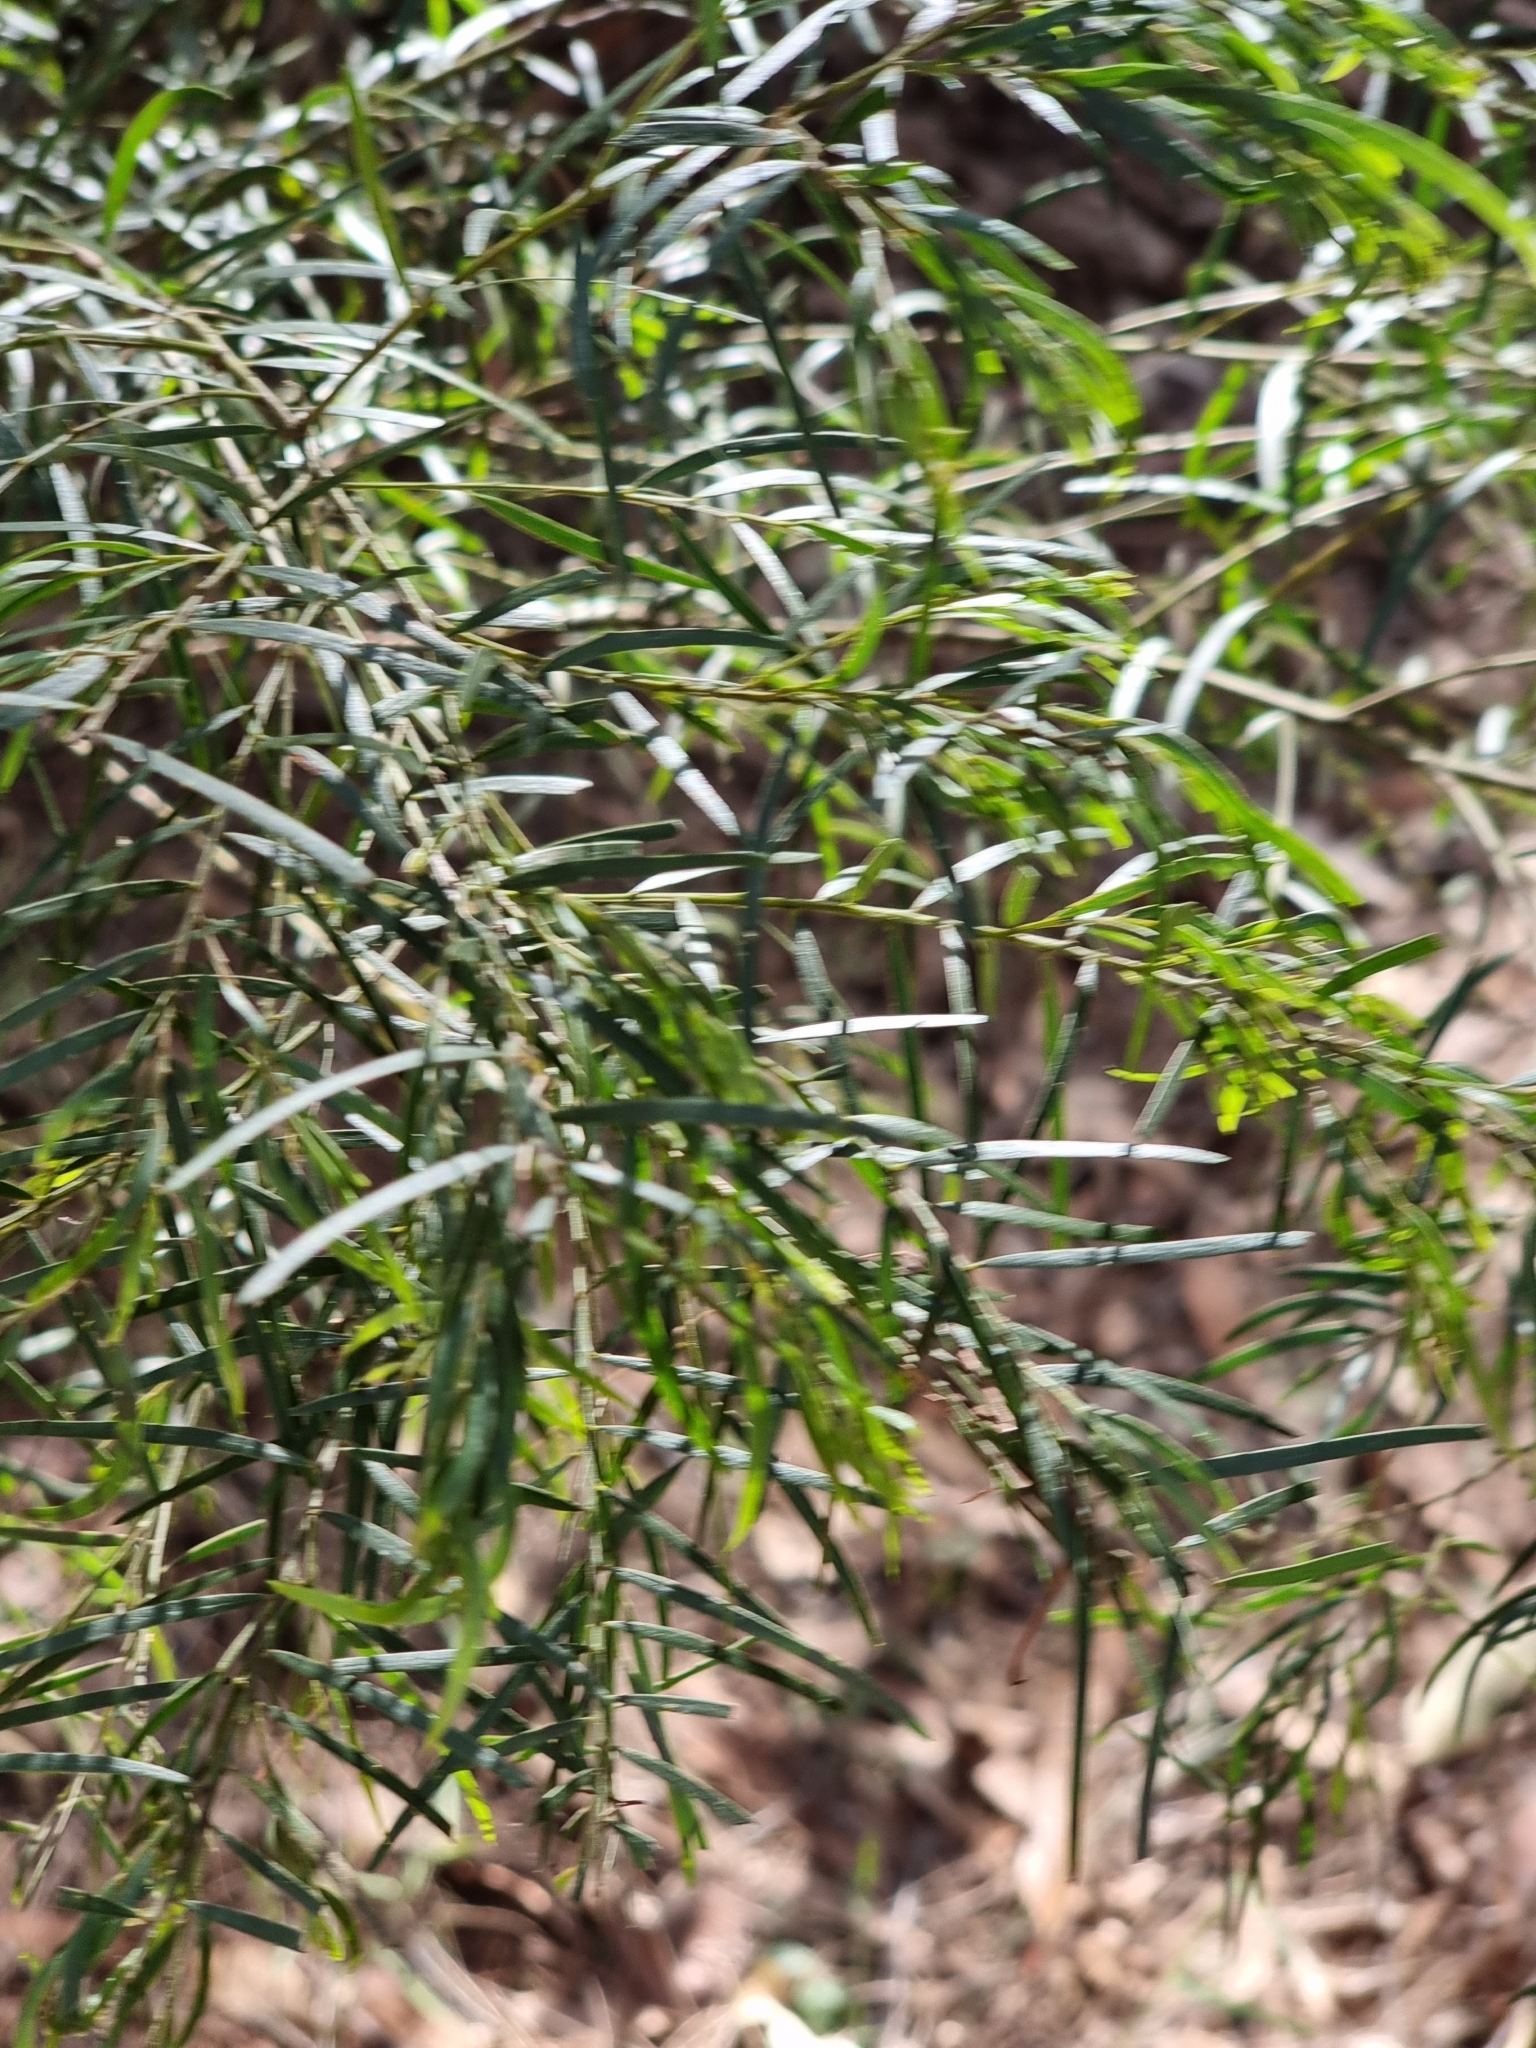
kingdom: Plantae
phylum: Tracheophyta
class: Magnoliopsida
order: Fabales
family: Fabaceae
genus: Acacia
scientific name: Acacia fimbriata
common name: Brisbane golden wattle
